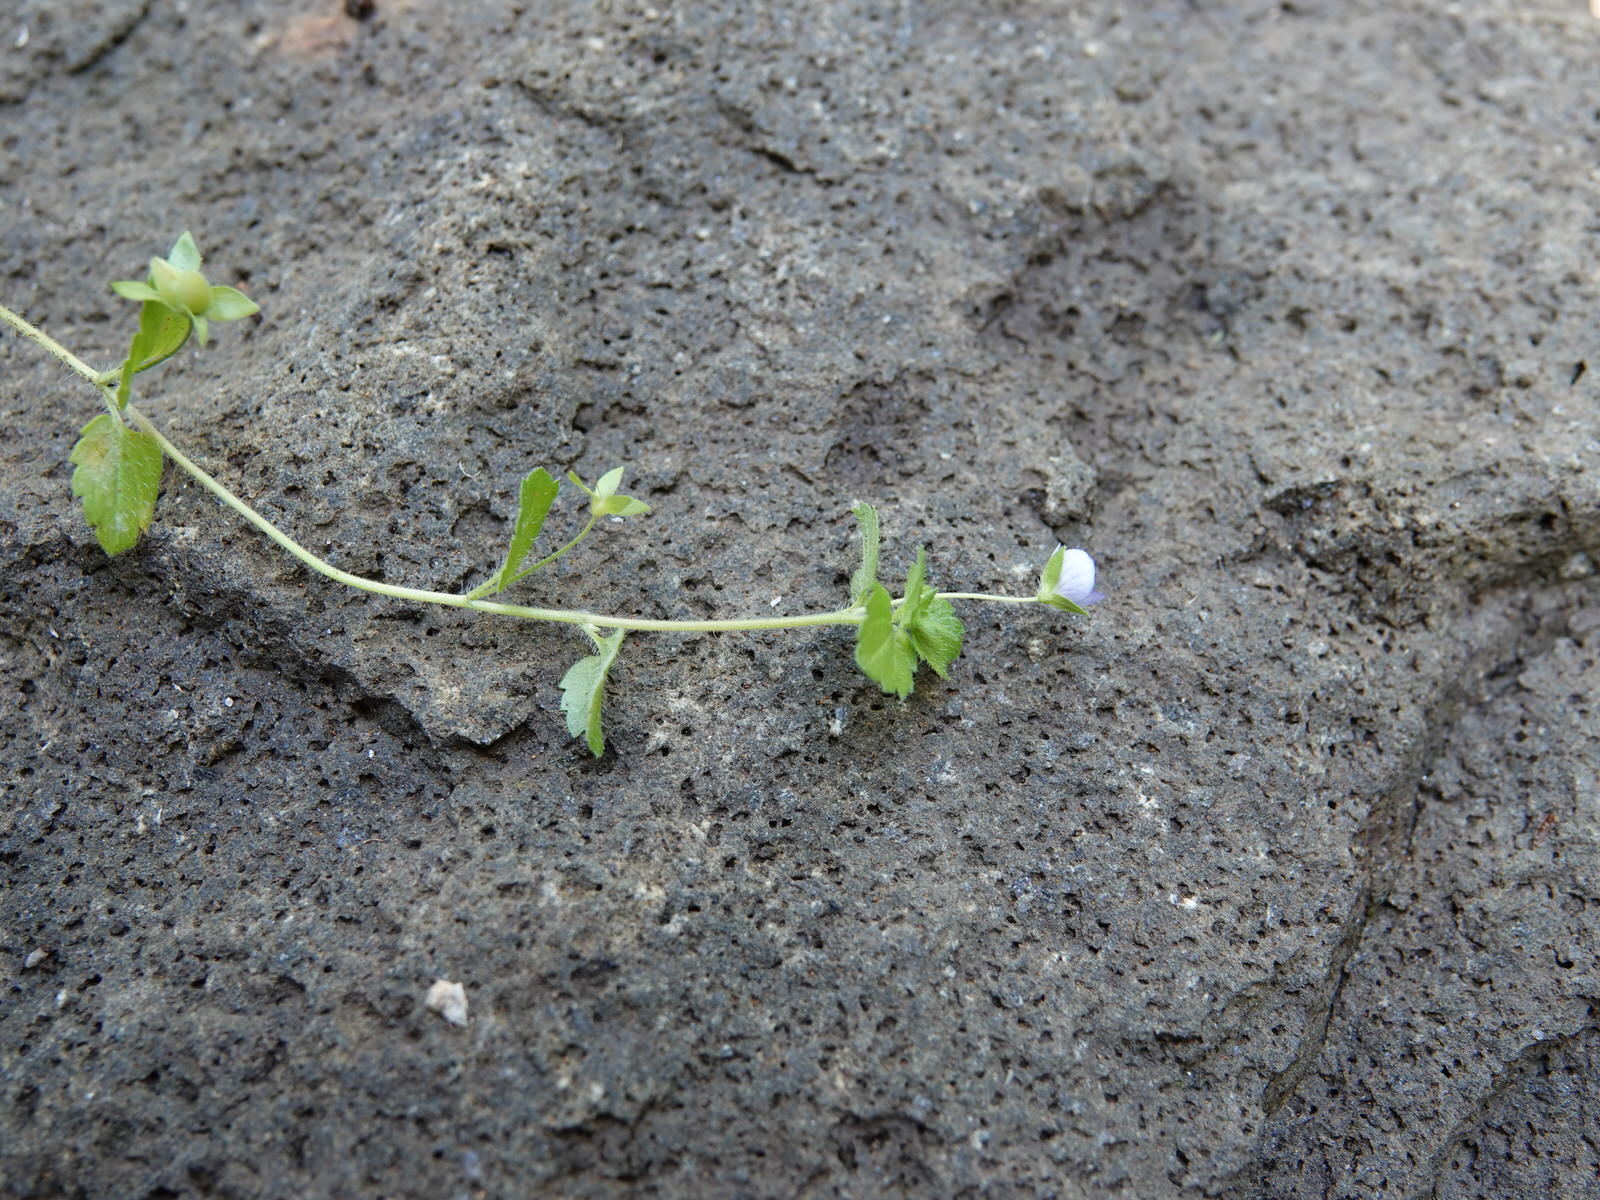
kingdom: Plantae
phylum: Tracheophyta
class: Magnoliopsida
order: Lamiales
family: Plantaginaceae
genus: Veronica
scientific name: Veronica persica
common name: Common field-speedwell
